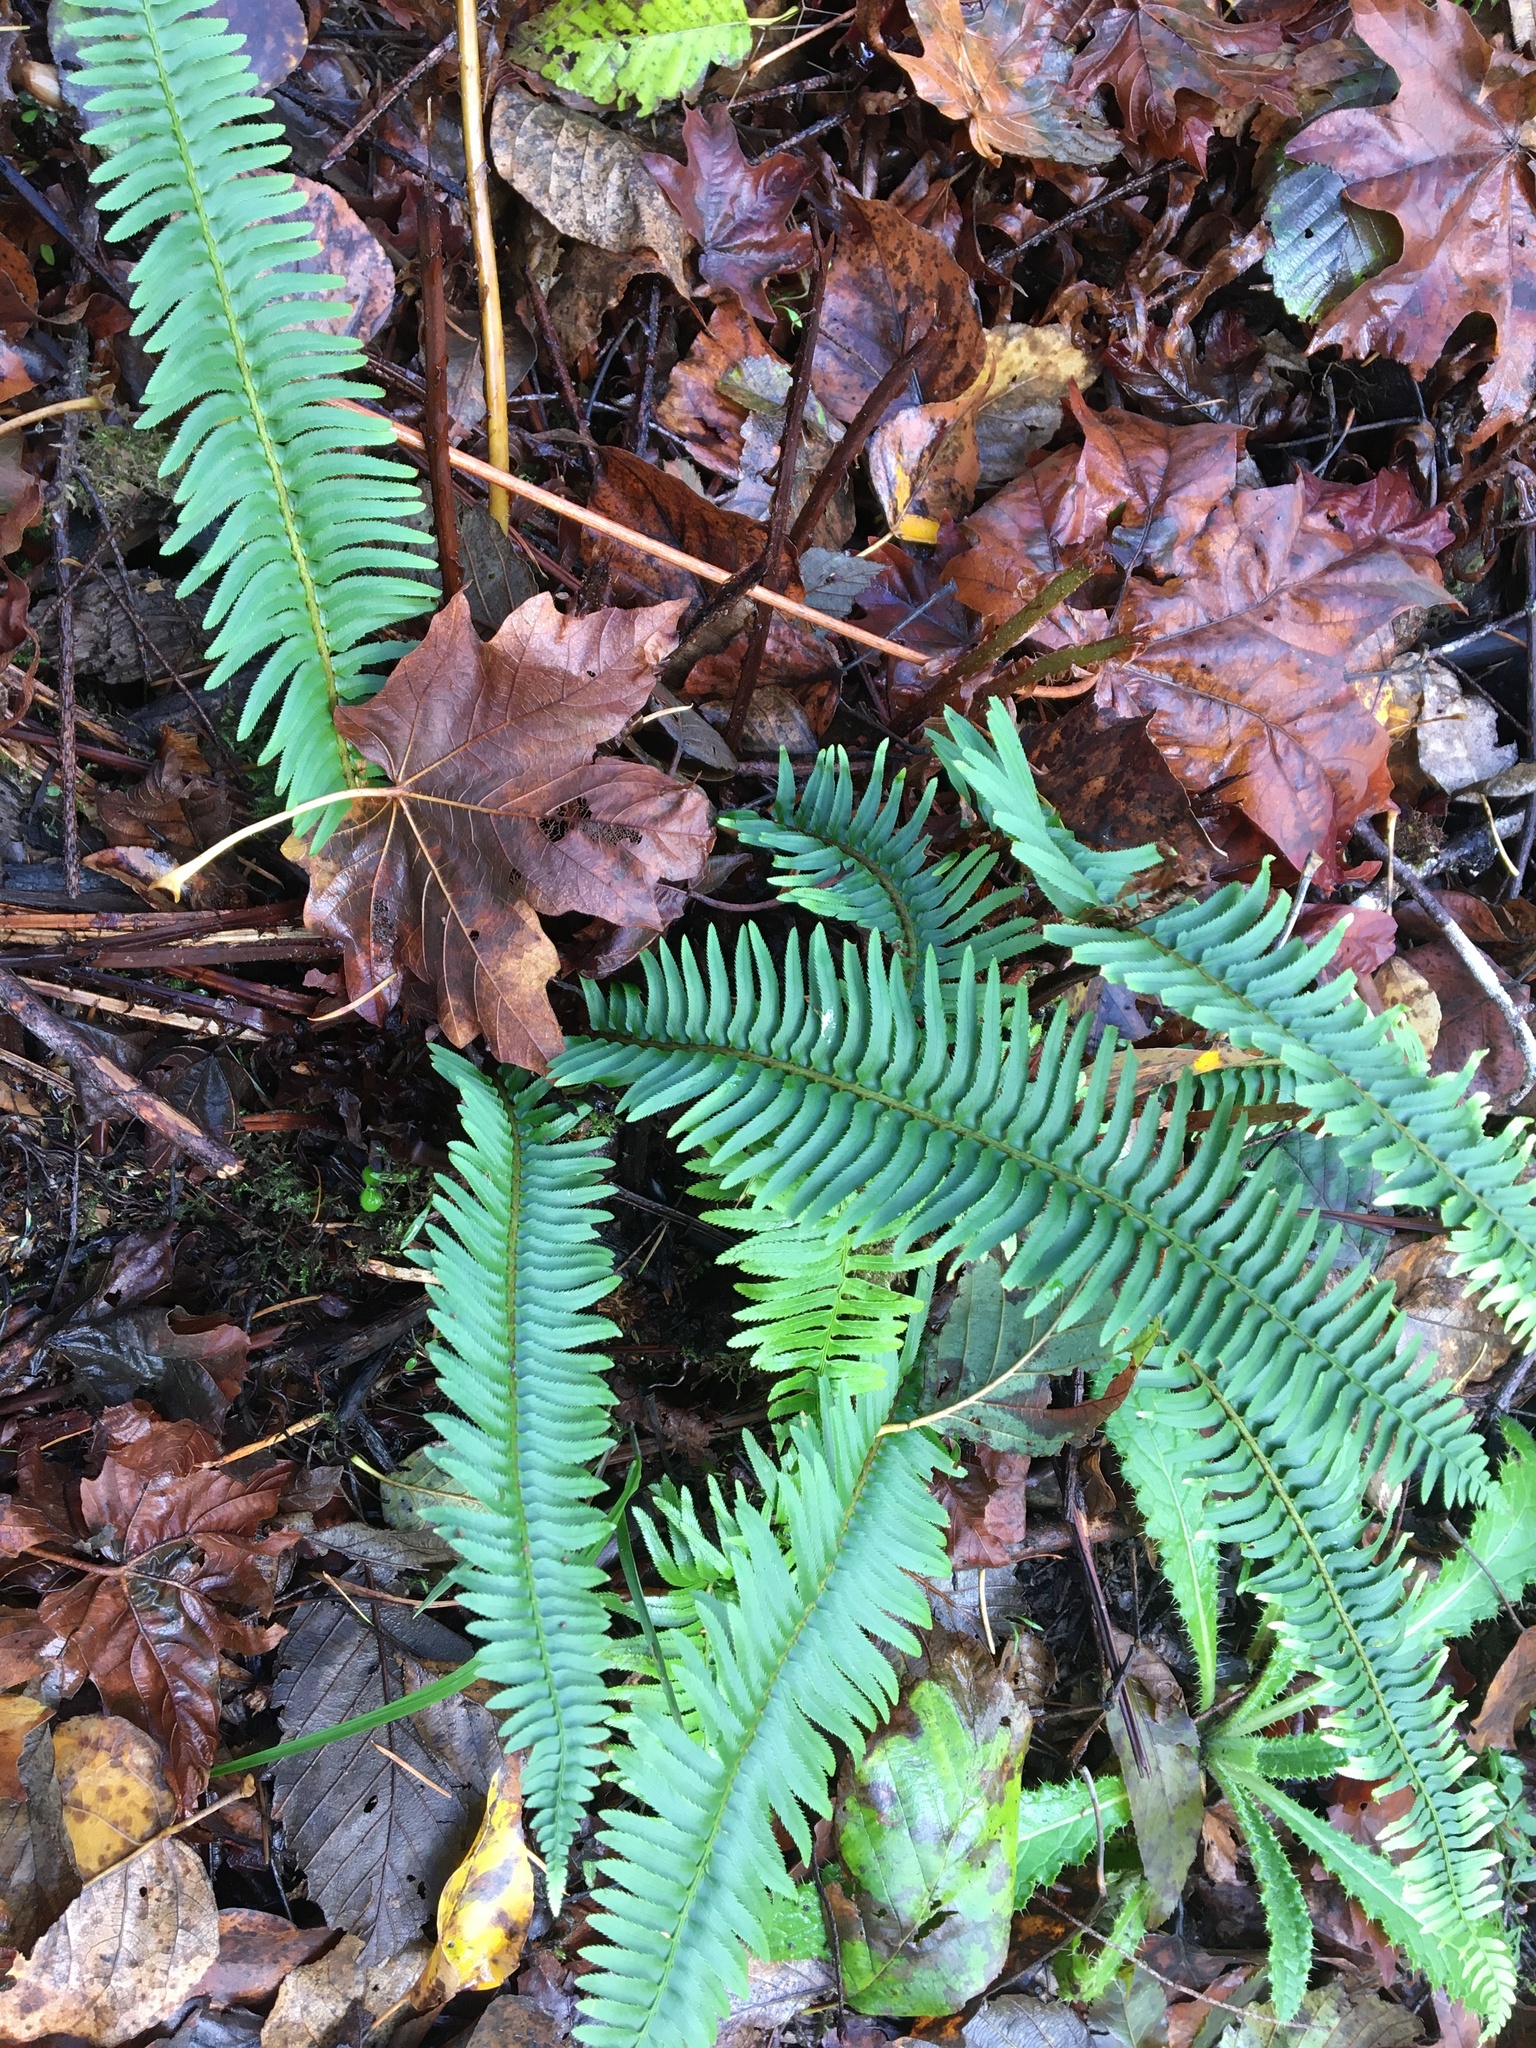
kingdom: Plantae
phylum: Tracheophyta
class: Polypodiopsida
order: Polypodiales
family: Dryopteridaceae
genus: Polystichum
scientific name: Polystichum munitum
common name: Western sword-fern
